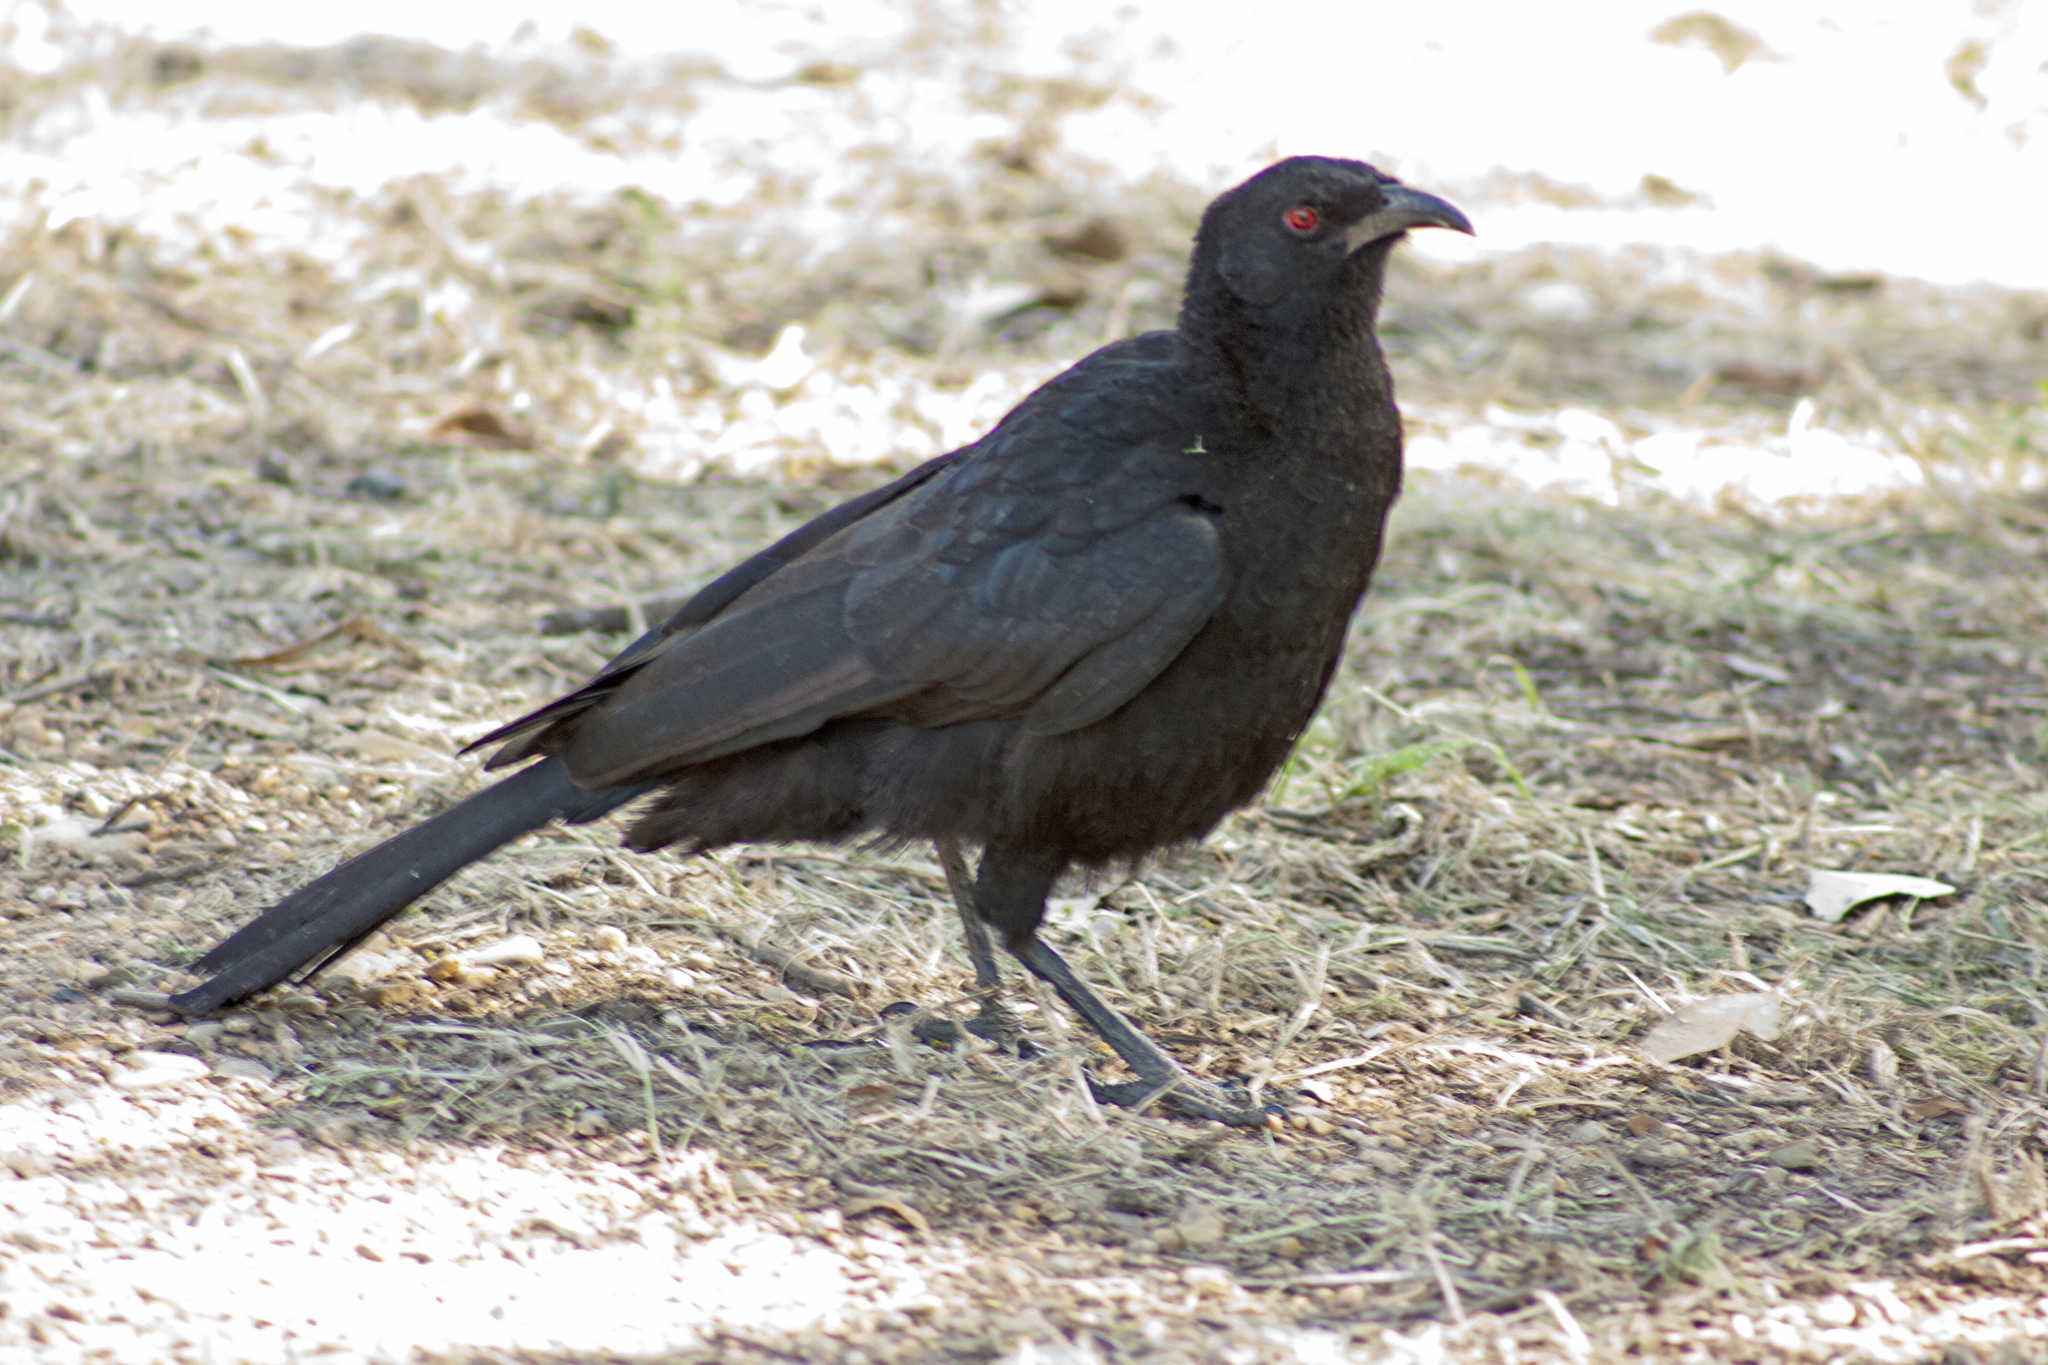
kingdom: Animalia
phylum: Chordata
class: Aves
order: Passeriformes
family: Corcoracidae
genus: Corcorax
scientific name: Corcorax melanoramphos
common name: White-winged chough
